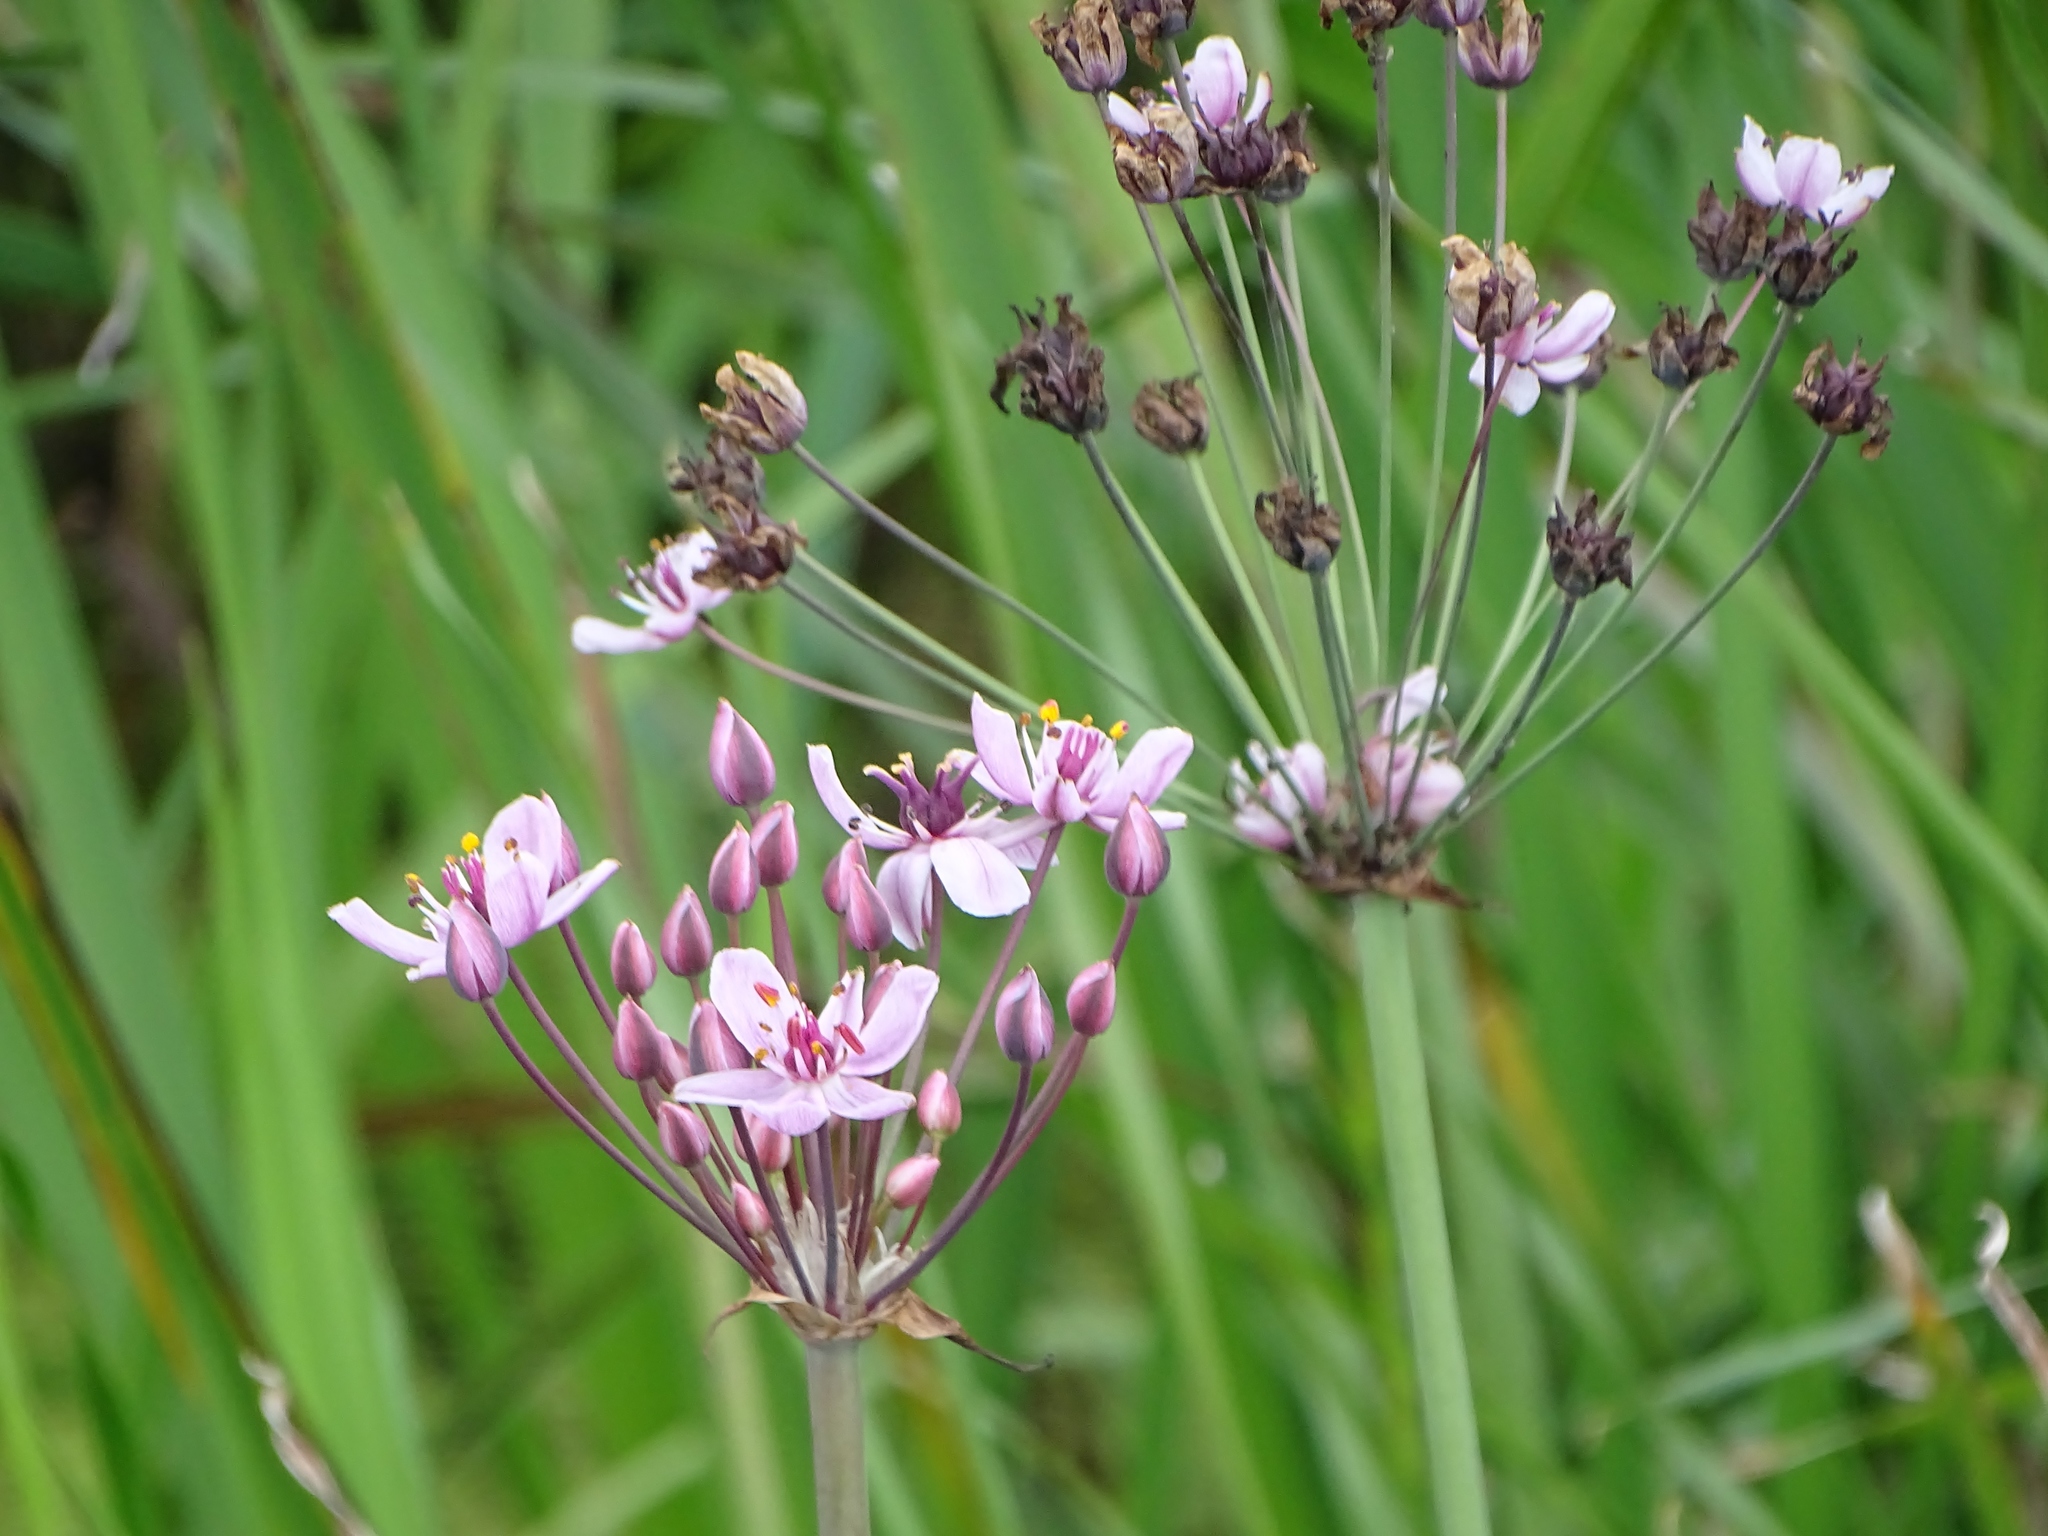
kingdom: Plantae
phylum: Tracheophyta
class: Liliopsida
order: Alismatales
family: Butomaceae
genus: Butomus
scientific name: Butomus umbellatus
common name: Flowering-rush
